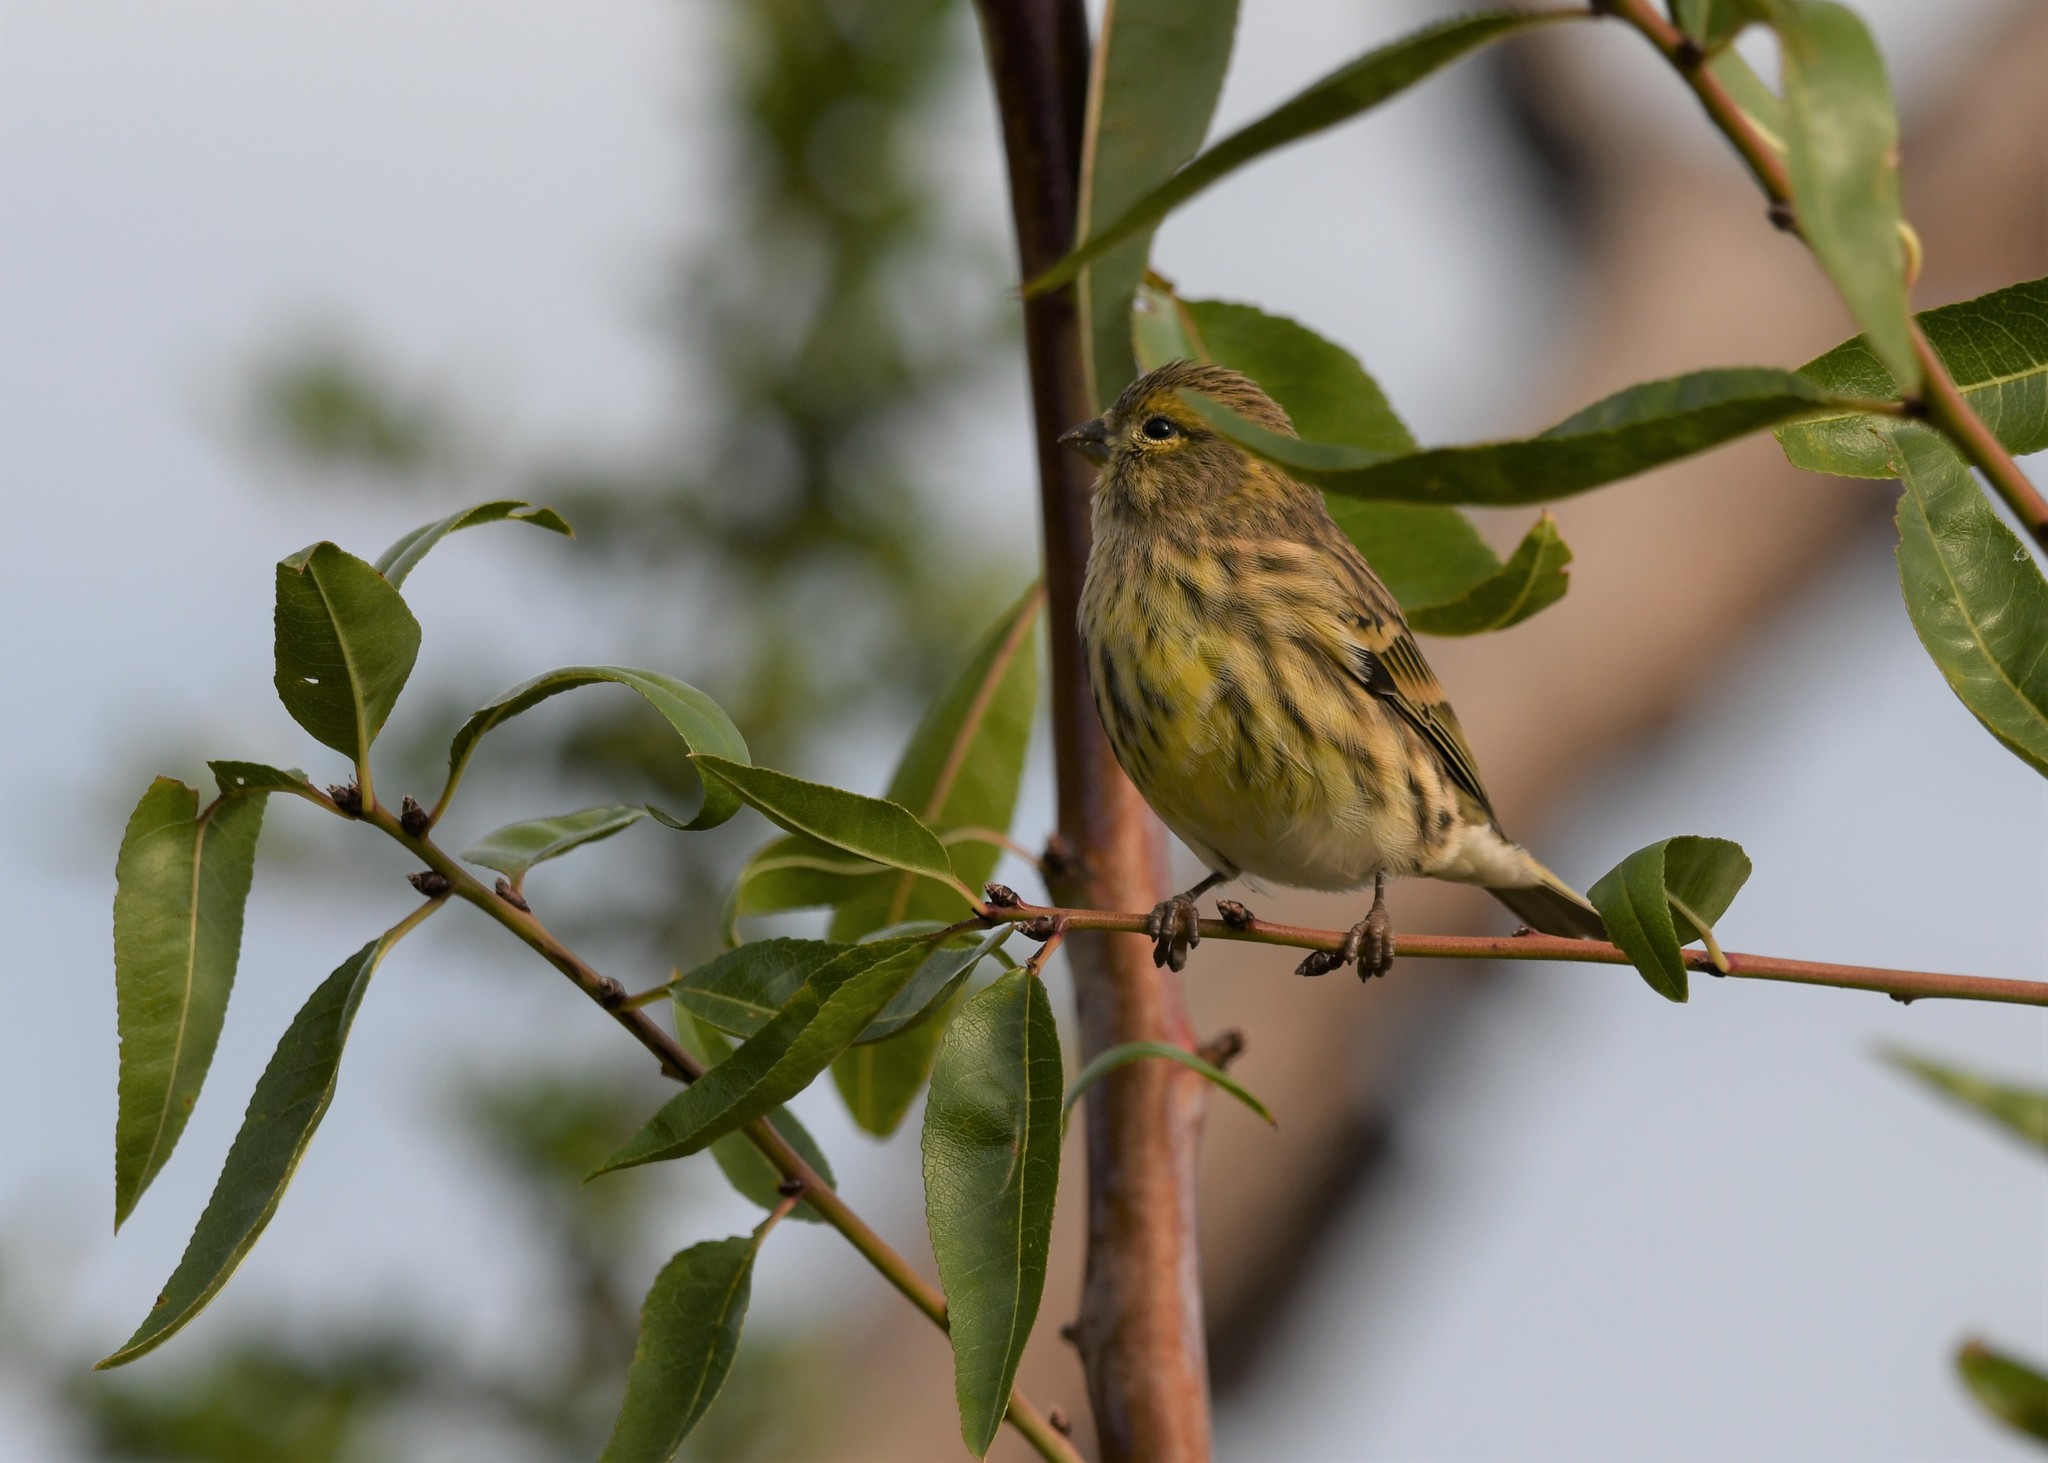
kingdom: Animalia
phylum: Chordata
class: Aves
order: Passeriformes
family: Fringillidae
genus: Serinus
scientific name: Serinus serinus
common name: European serin
